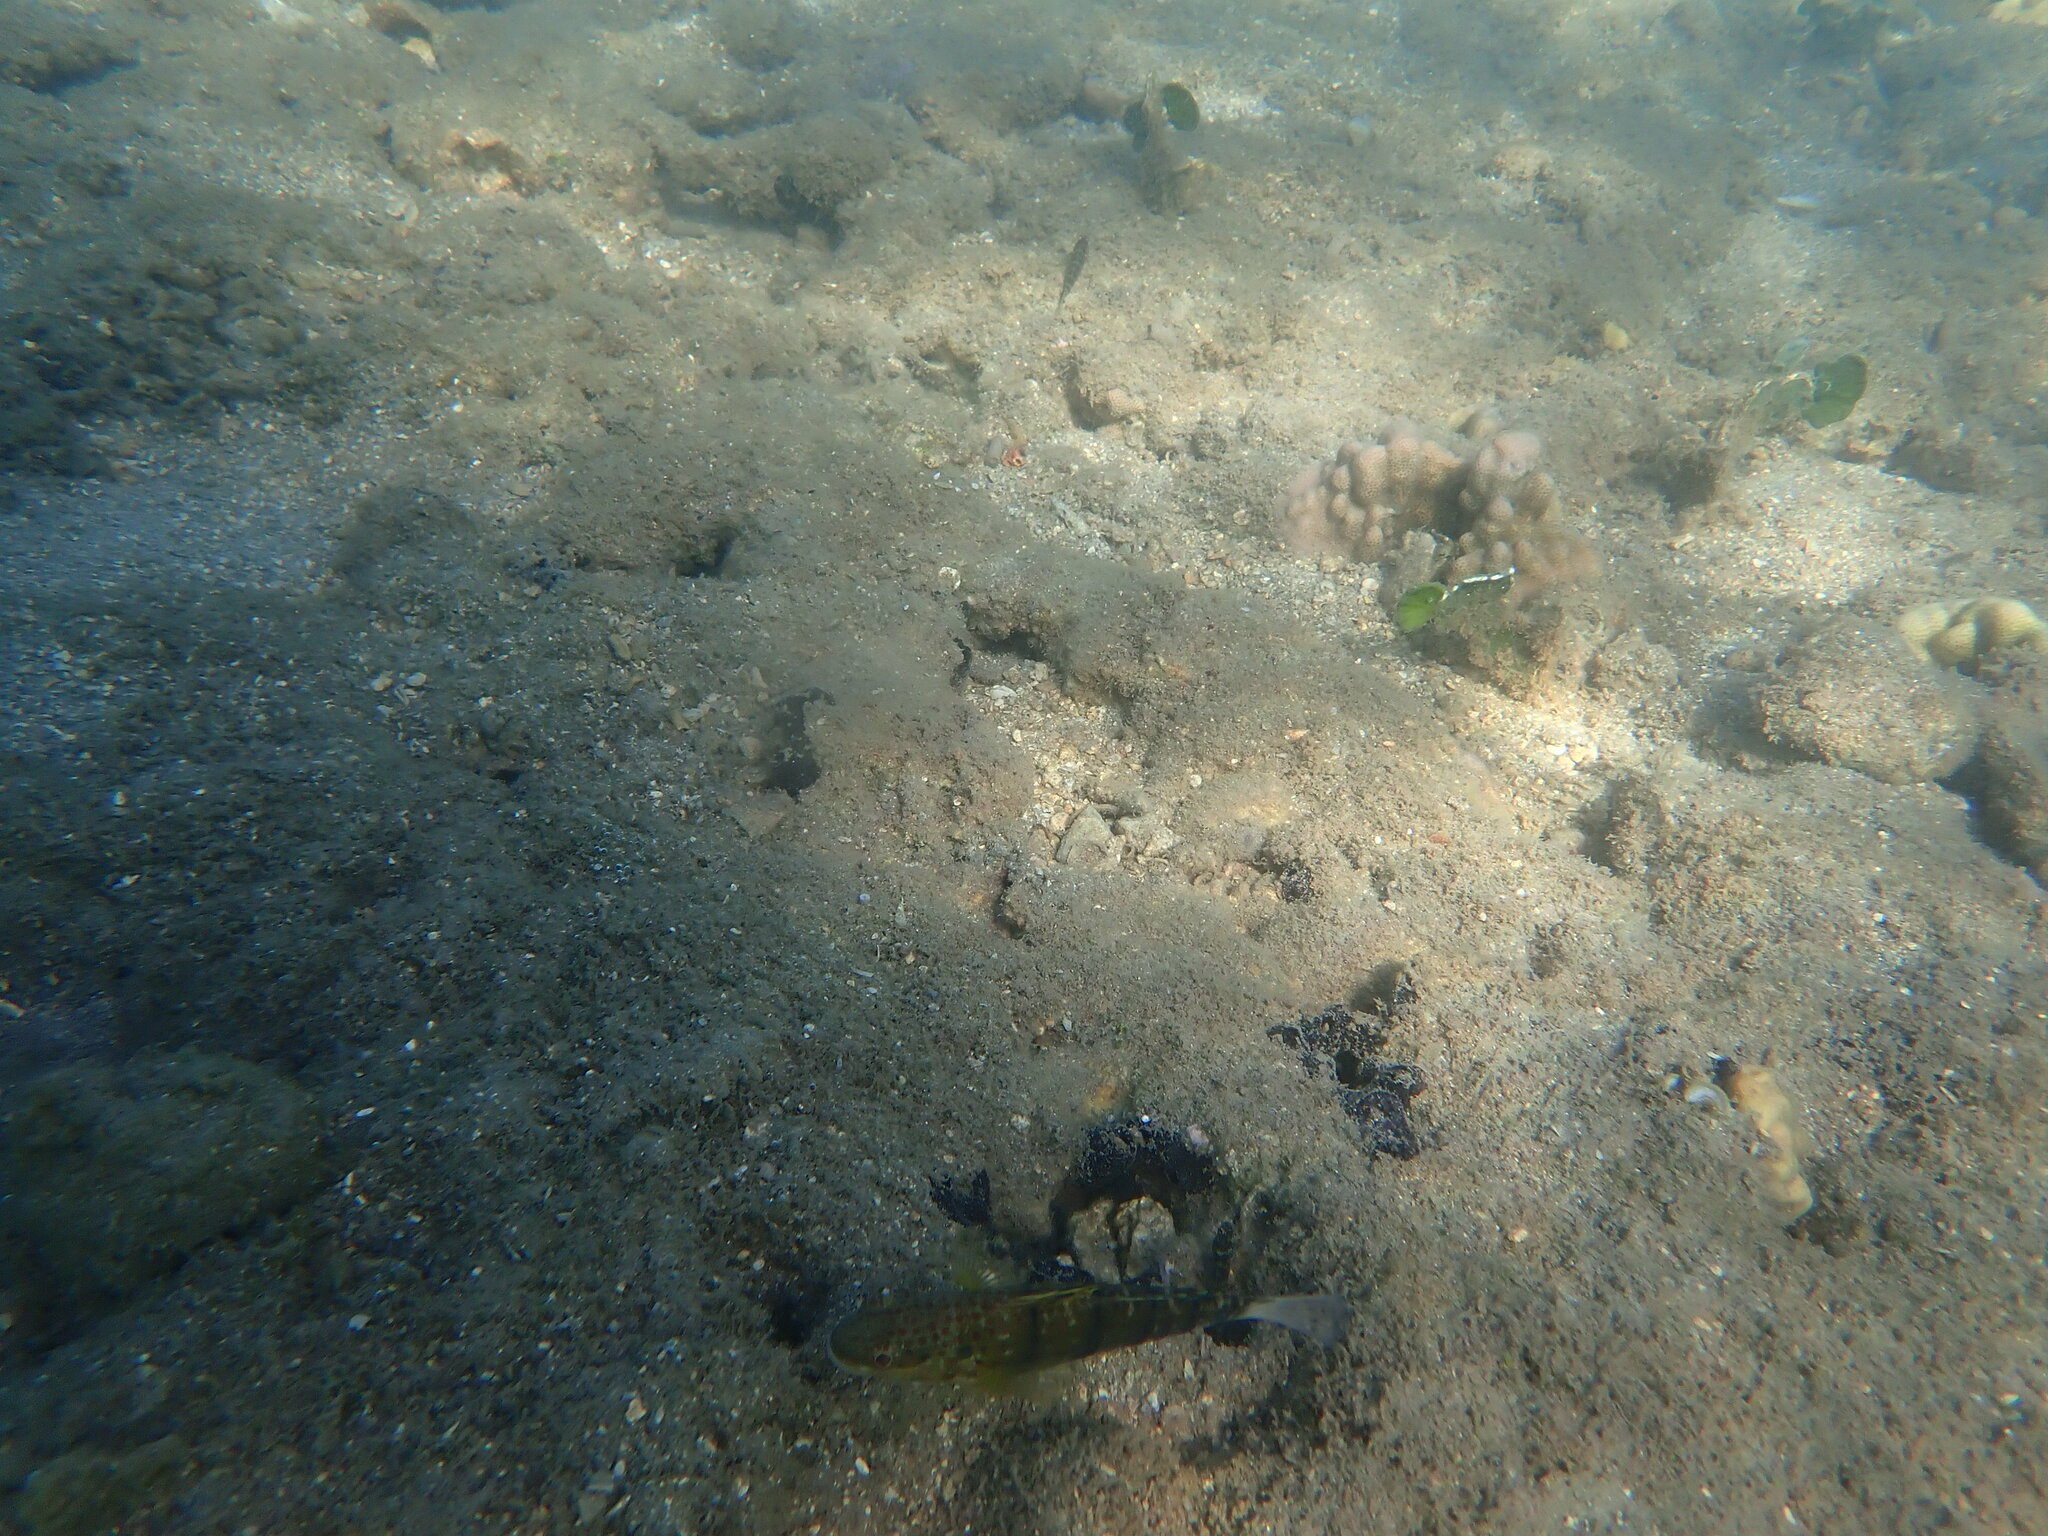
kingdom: Animalia
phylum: Chordata
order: Perciformes
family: Gobiidae
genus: Amblygobius
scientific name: Amblygobius phalaena
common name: Banded goby
